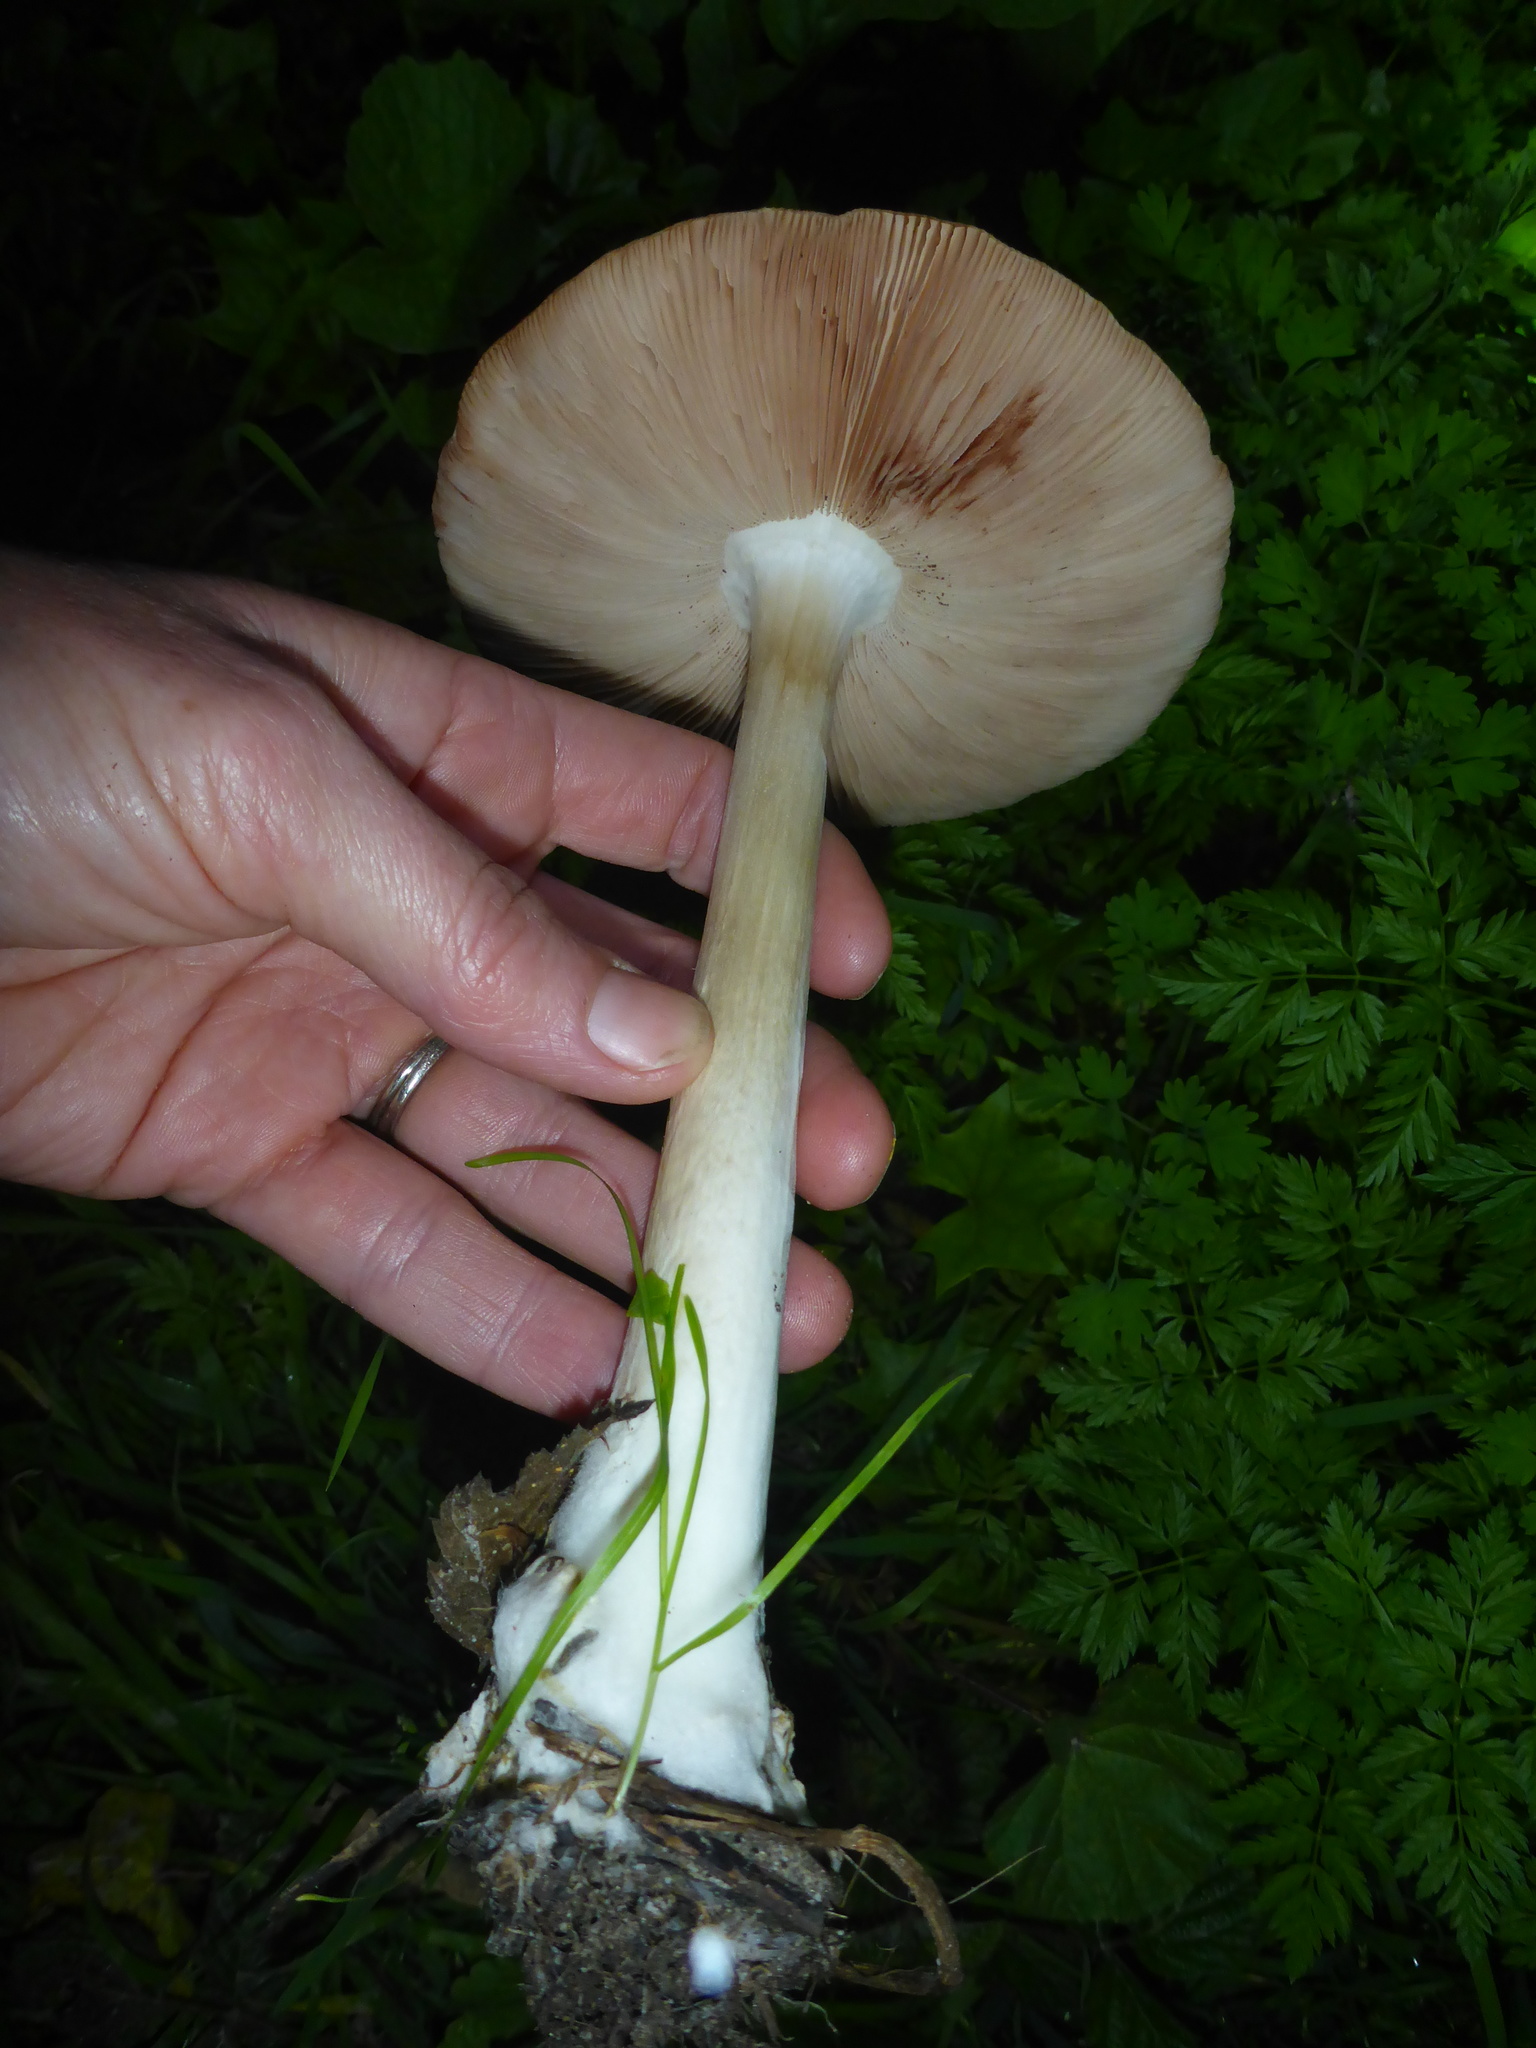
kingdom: Fungi
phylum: Basidiomycota
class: Agaricomycetes
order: Agaricales
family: Pluteaceae
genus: Volvopluteus
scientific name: Volvopluteus gloiocephalus
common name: Stubble rosegill
